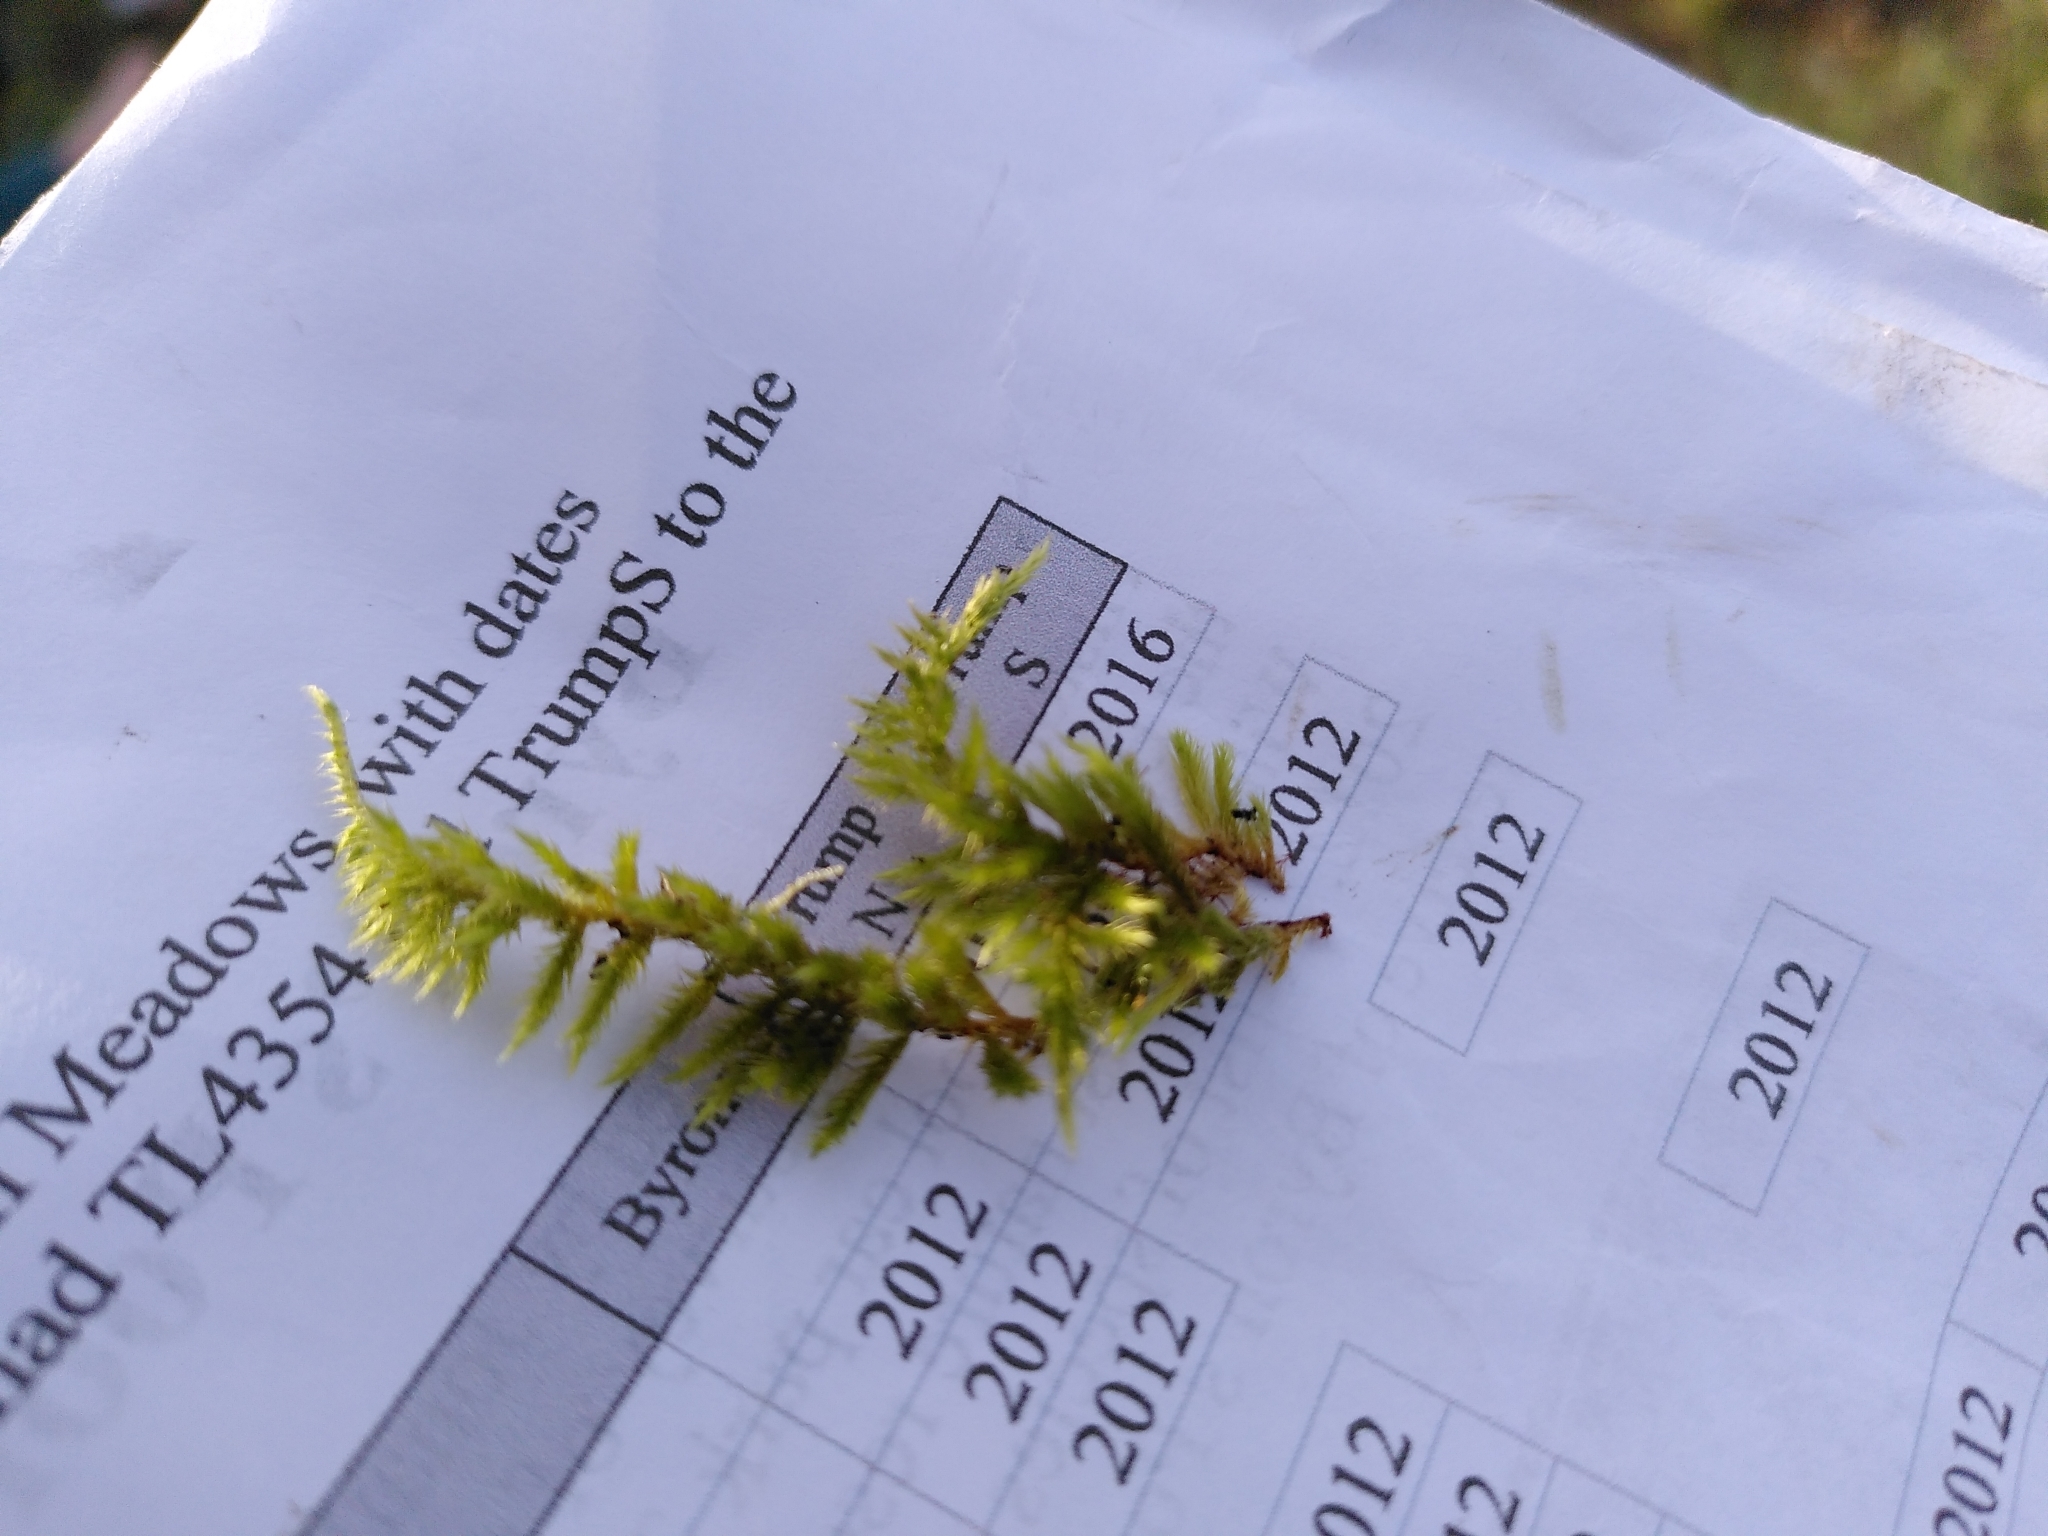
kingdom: Plantae
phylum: Bryophyta
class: Bryopsida
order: Hypnales
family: Brachytheciaceae
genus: Homalothecium
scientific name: Homalothecium sericeum
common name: Silky wall feather-moss
